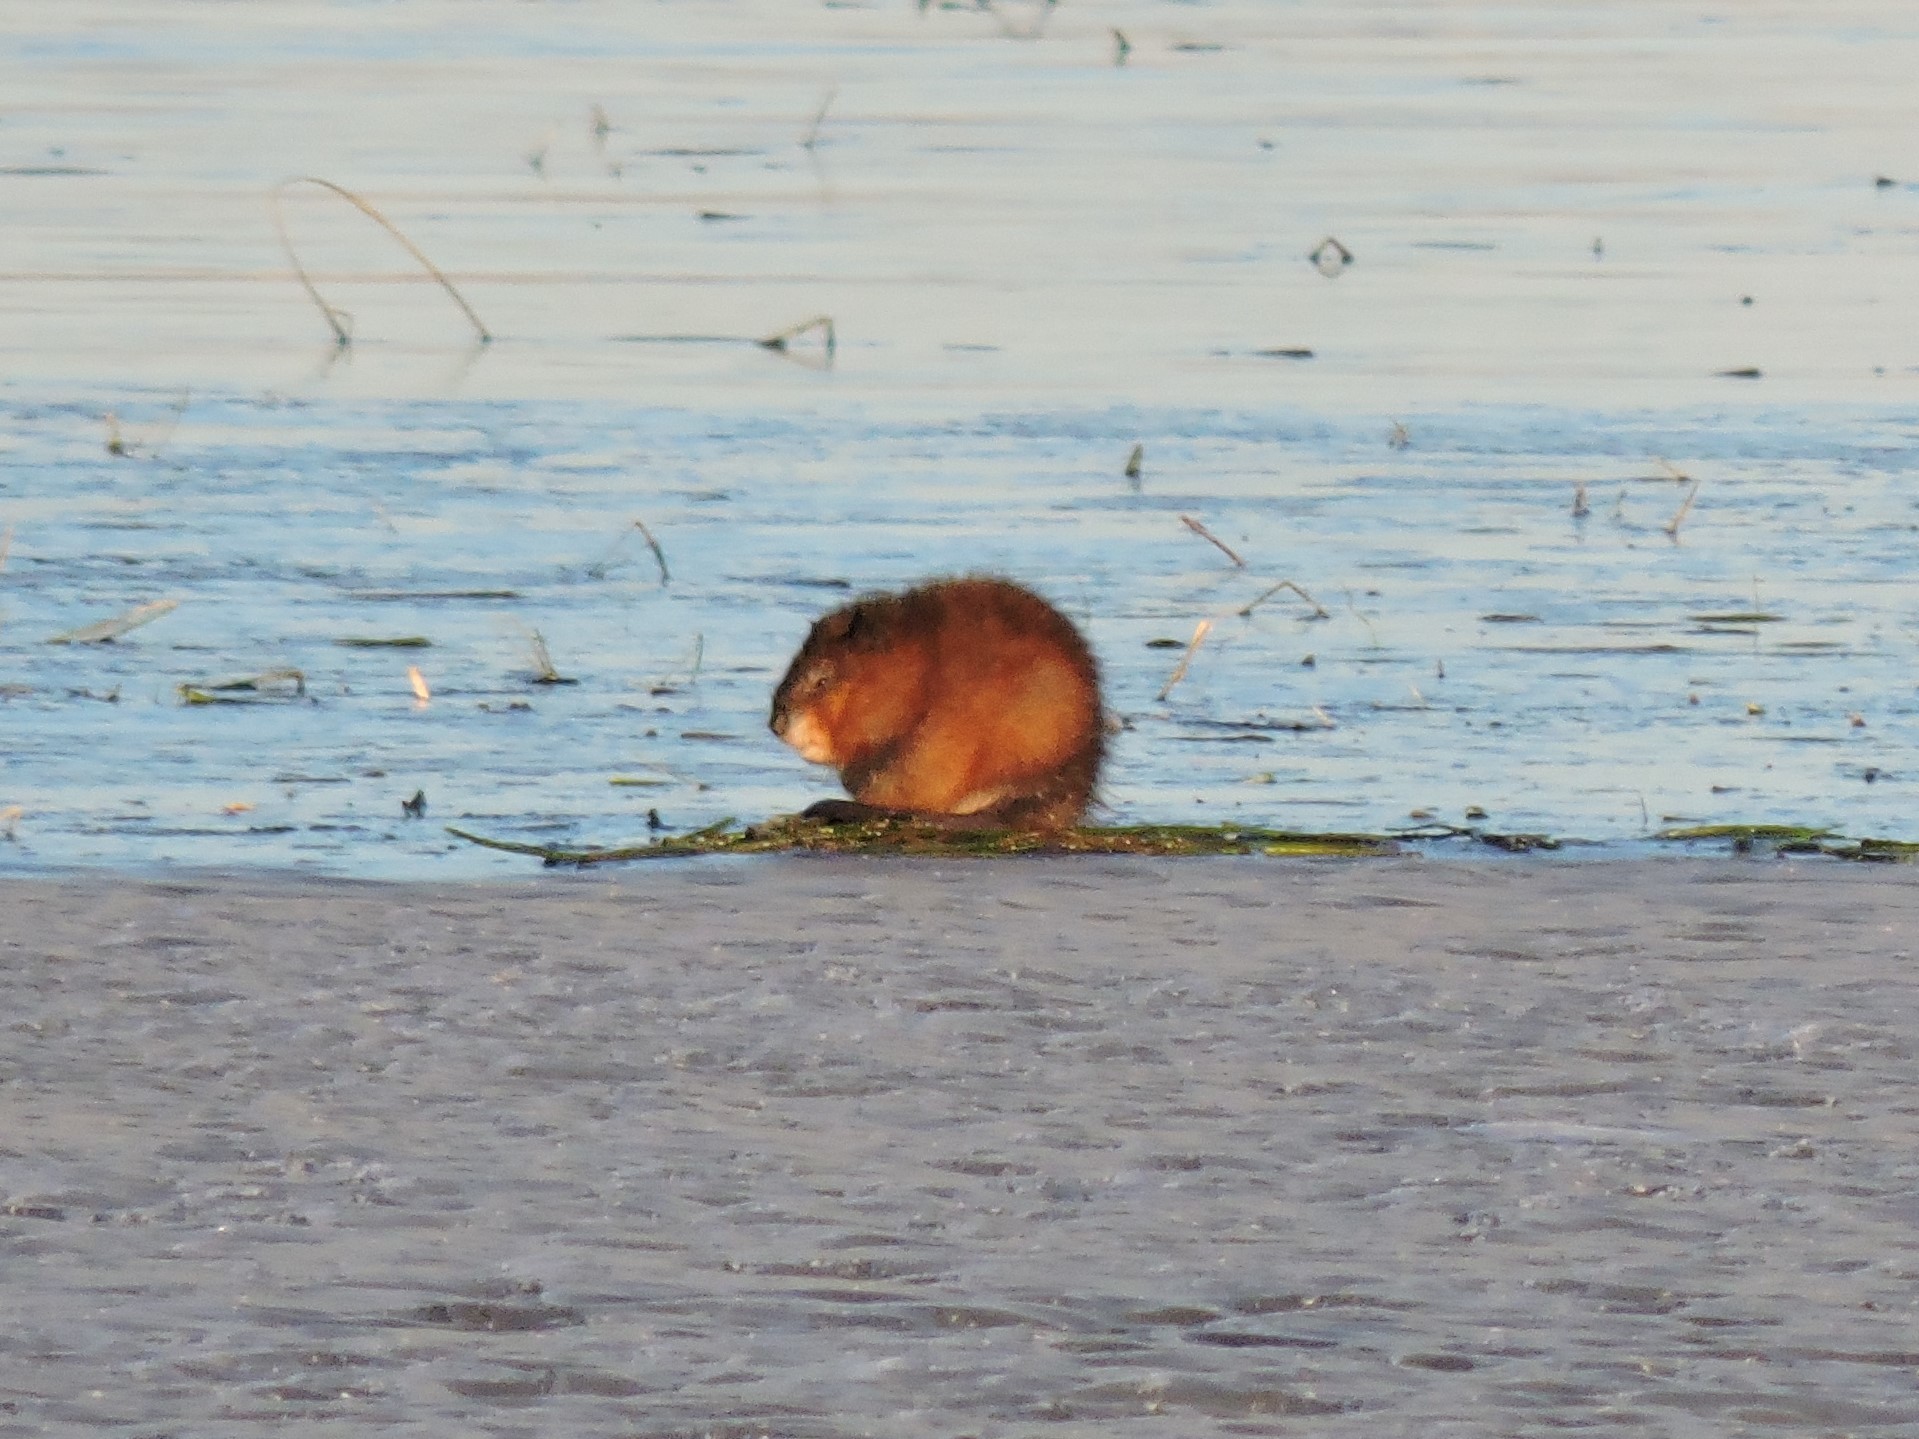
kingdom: Animalia
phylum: Chordata
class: Mammalia
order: Rodentia
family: Cricetidae
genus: Ondatra
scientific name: Ondatra zibethicus
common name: Muskrat
